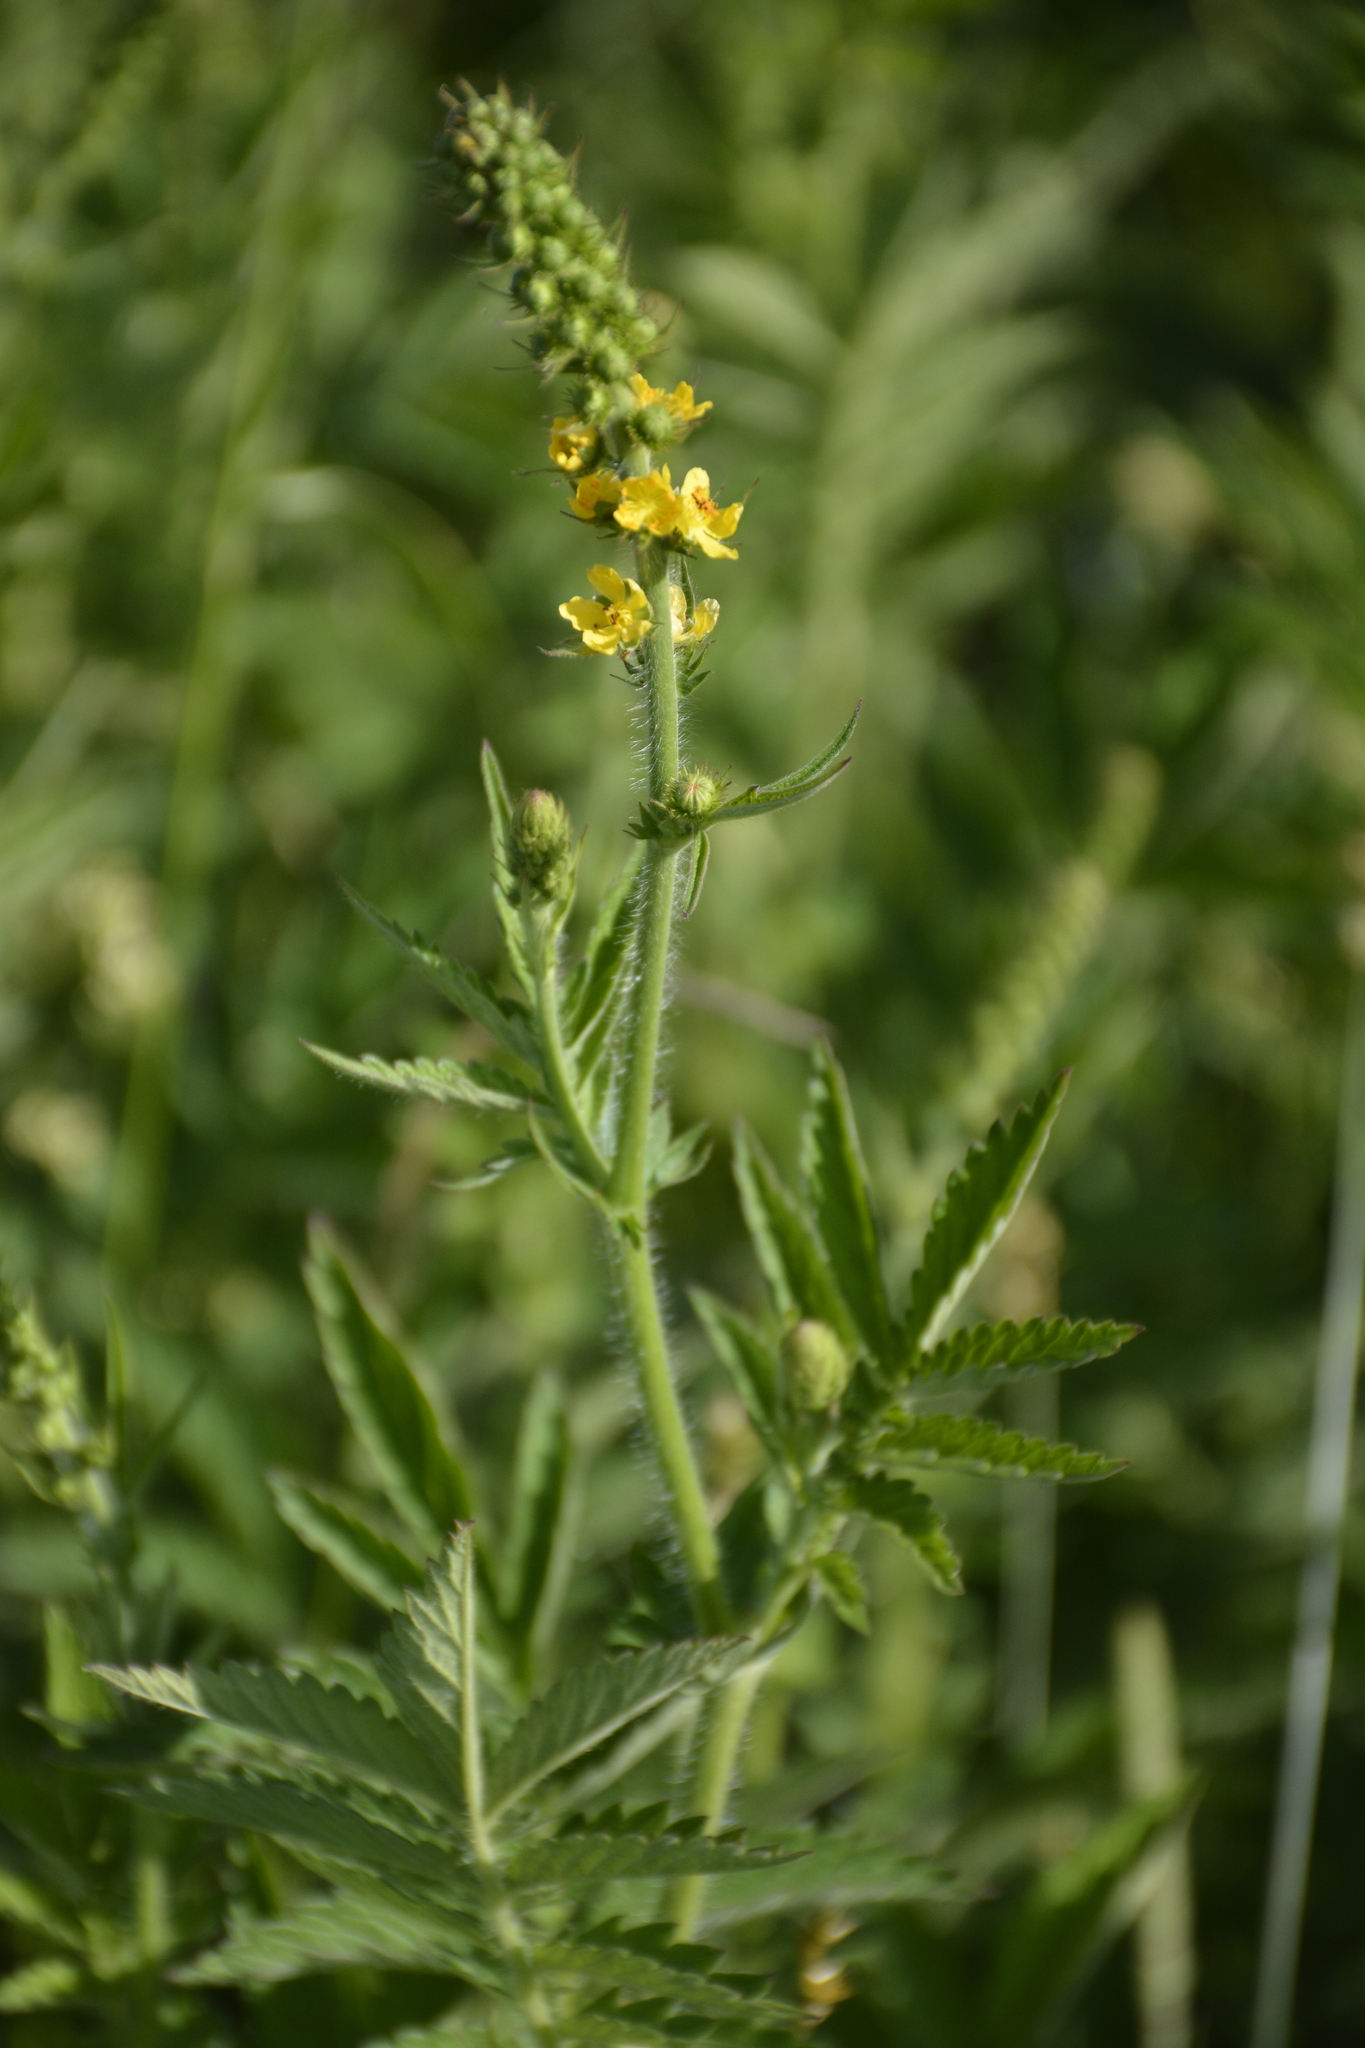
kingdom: Plantae
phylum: Tracheophyta
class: Magnoliopsida
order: Rosales
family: Rosaceae
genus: Agrimonia
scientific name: Agrimonia eupatoria
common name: Agrimony
